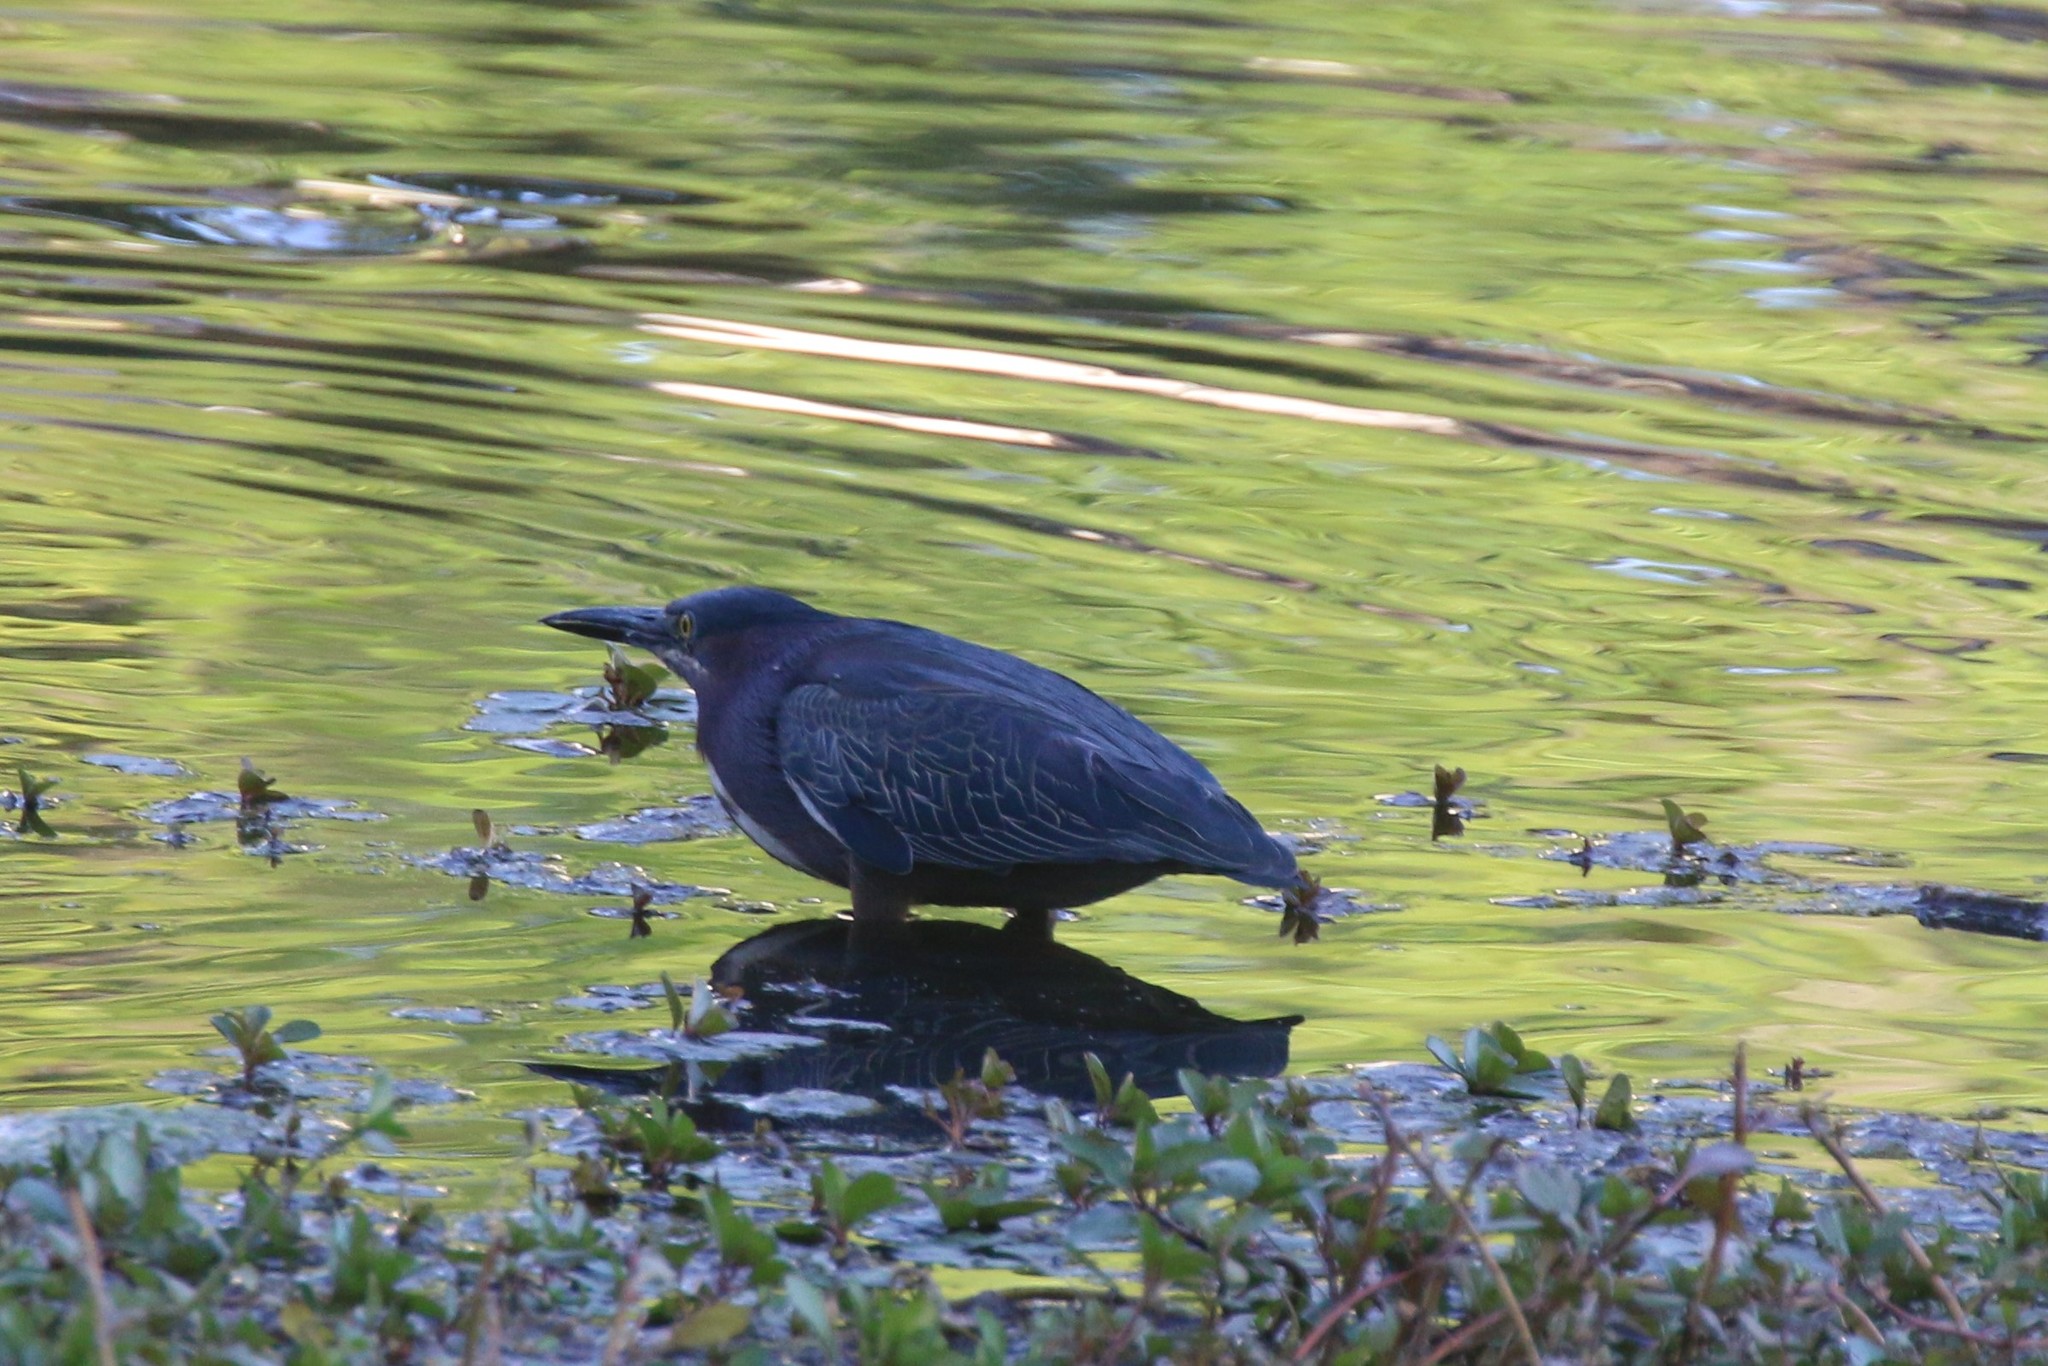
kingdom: Animalia
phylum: Chordata
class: Aves
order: Pelecaniformes
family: Ardeidae
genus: Butorides
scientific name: Butorides virescens
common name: Green heron
